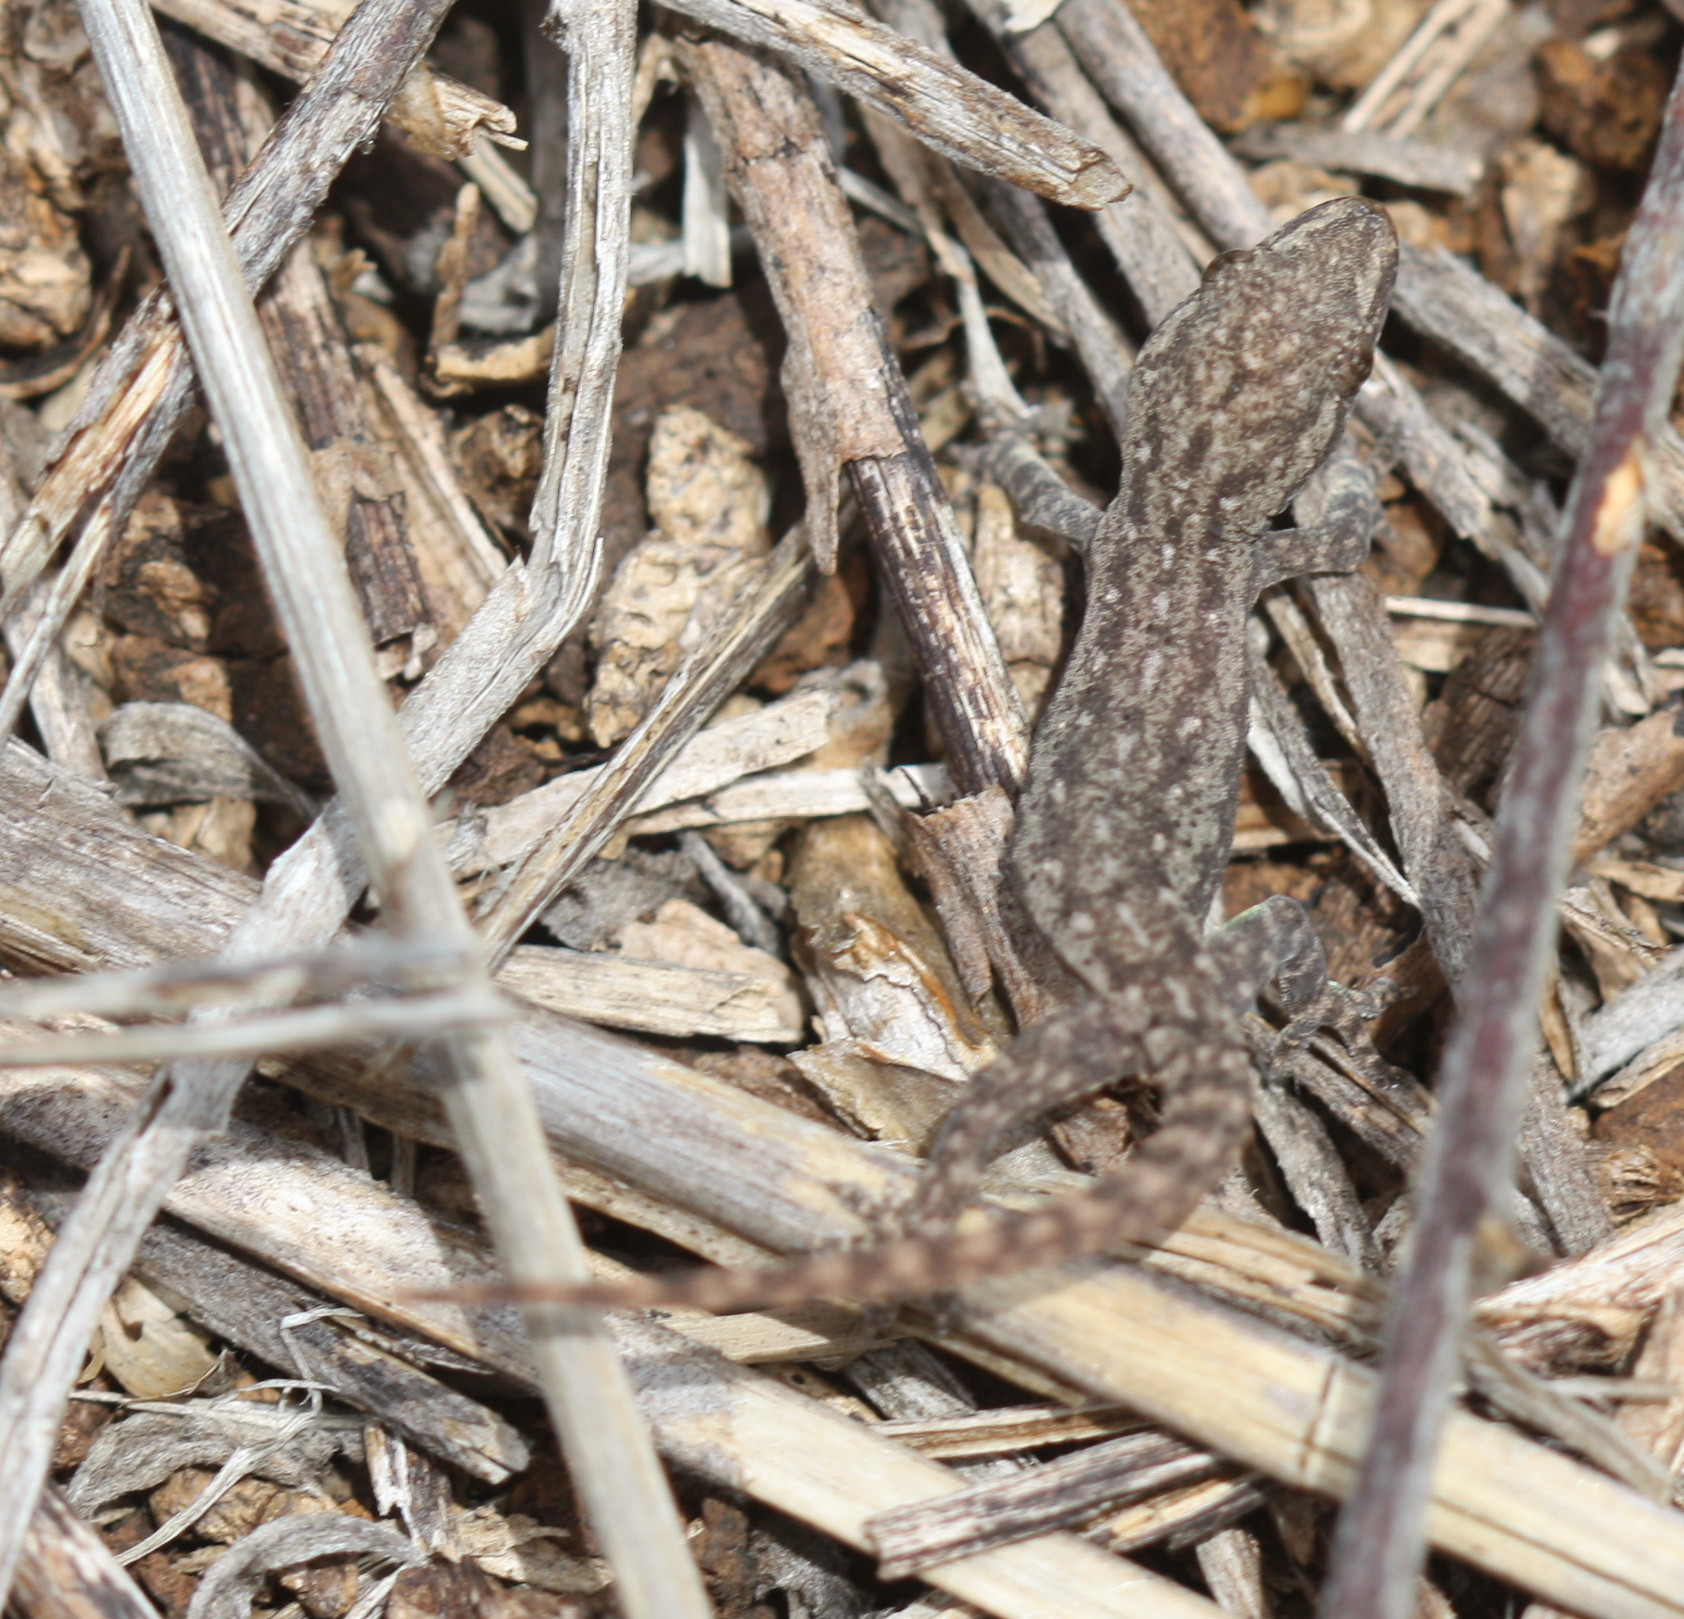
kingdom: Animalia
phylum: Chordata
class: Squamata
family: Gekkonidae
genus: Hemidactylus
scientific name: Hemidactylus frenatus
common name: Common house gecko
